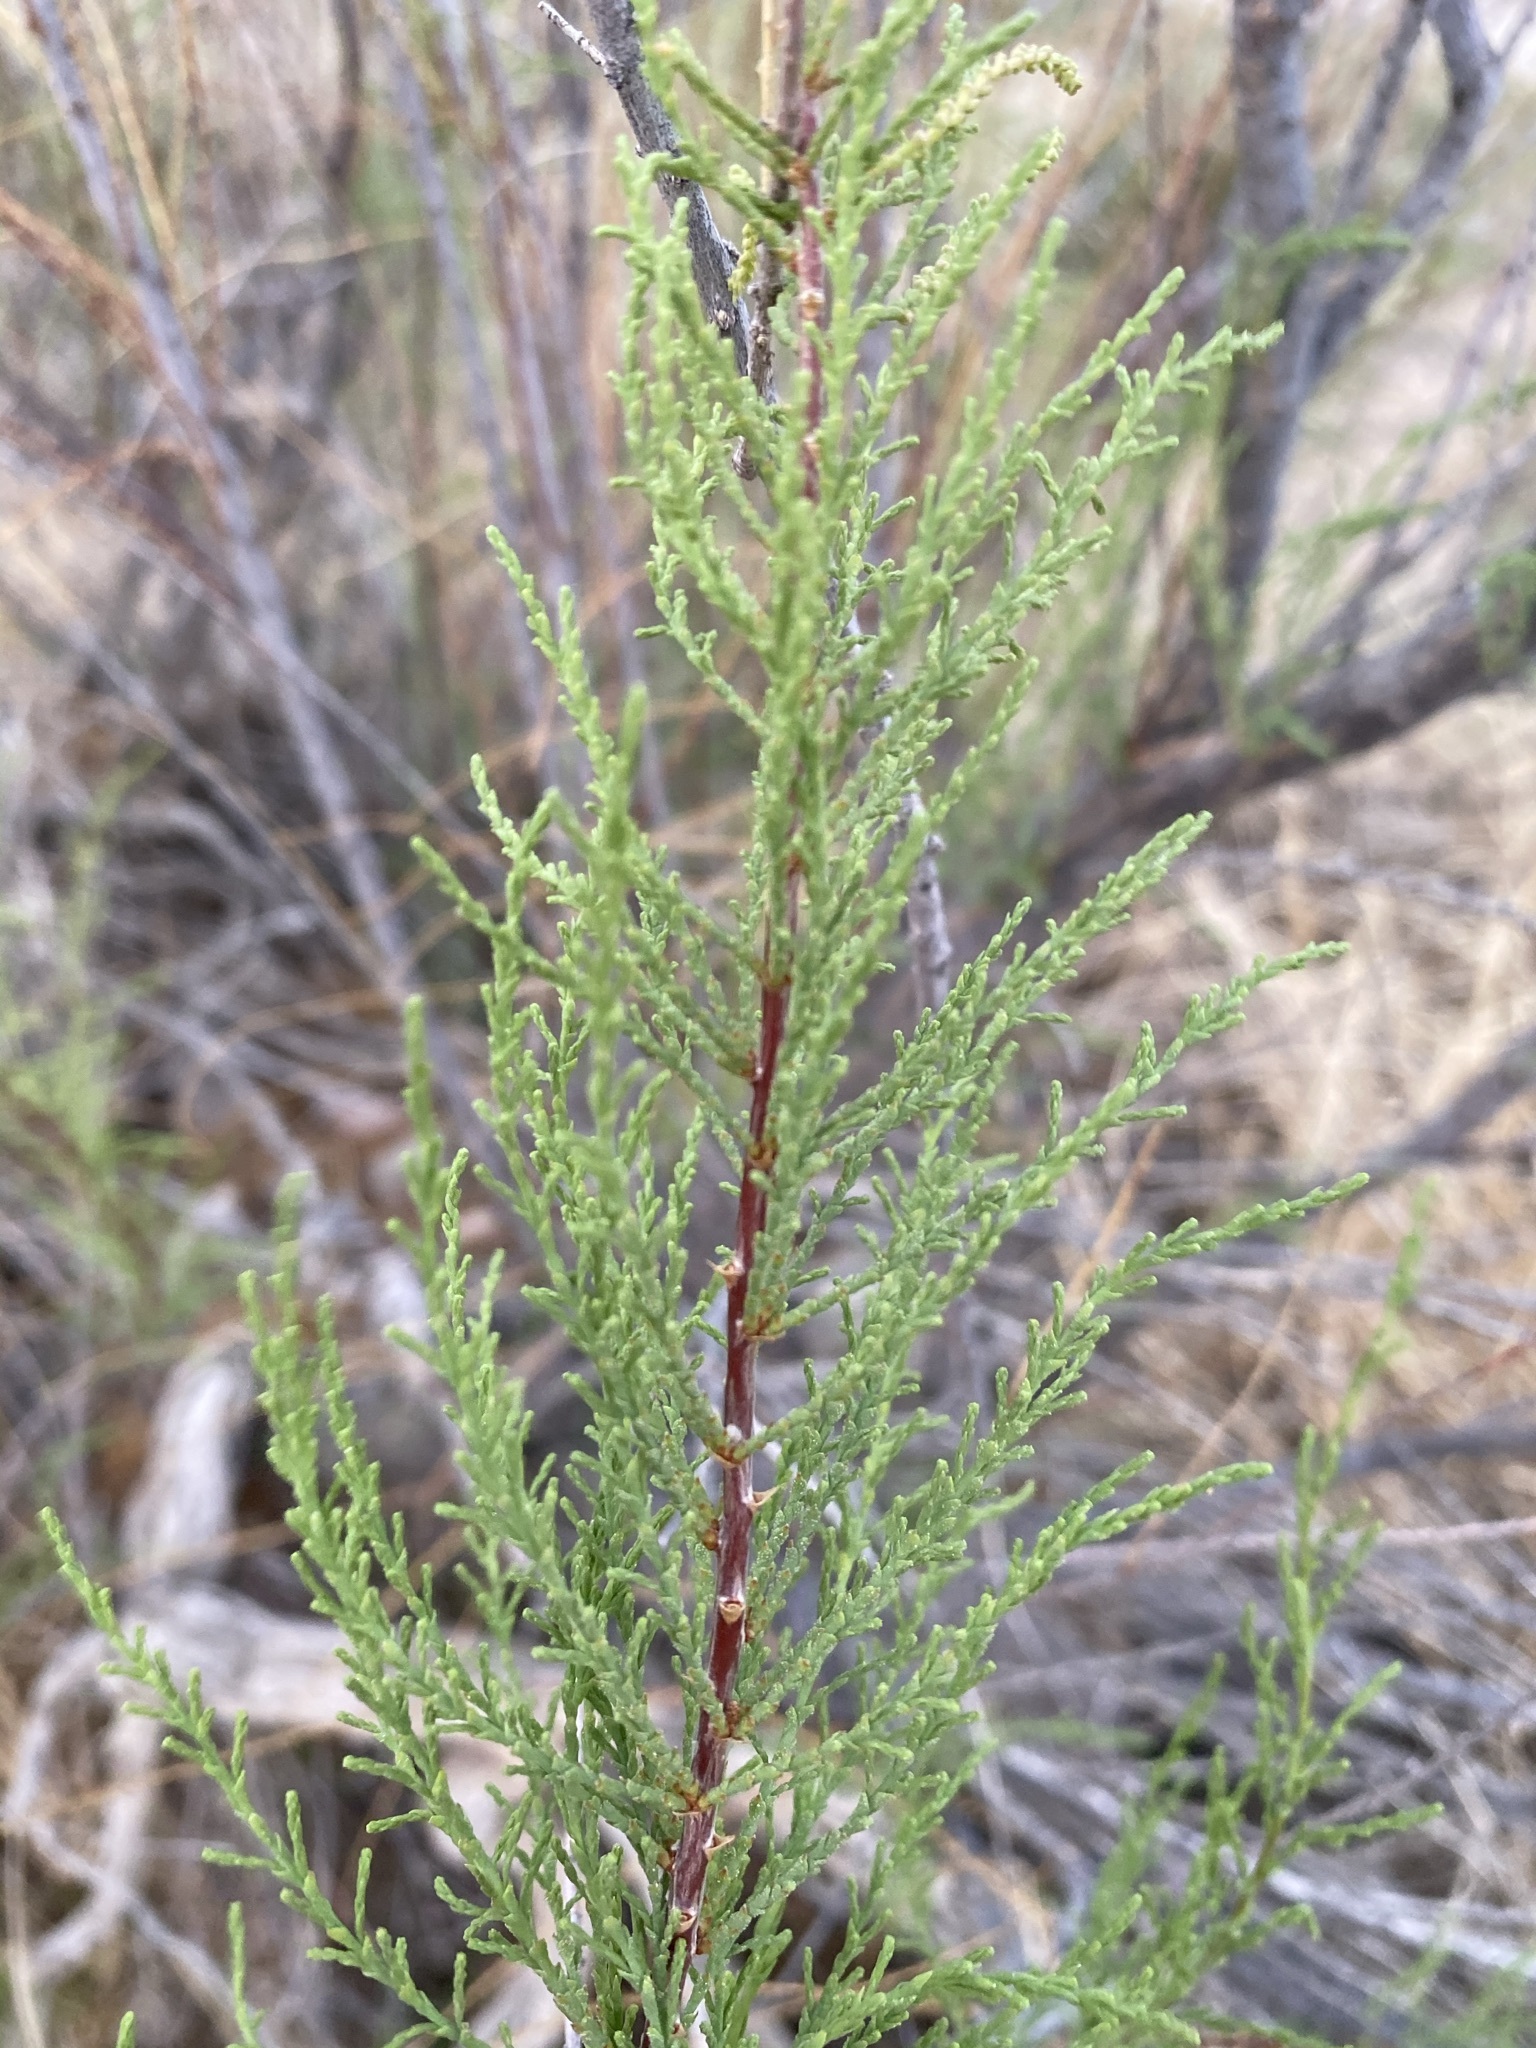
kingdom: Plantae
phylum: Tracheophyta
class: Magnoliopsida
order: Caryophyllales
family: Tamaricaceae
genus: Tamarix
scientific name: Tamarix
